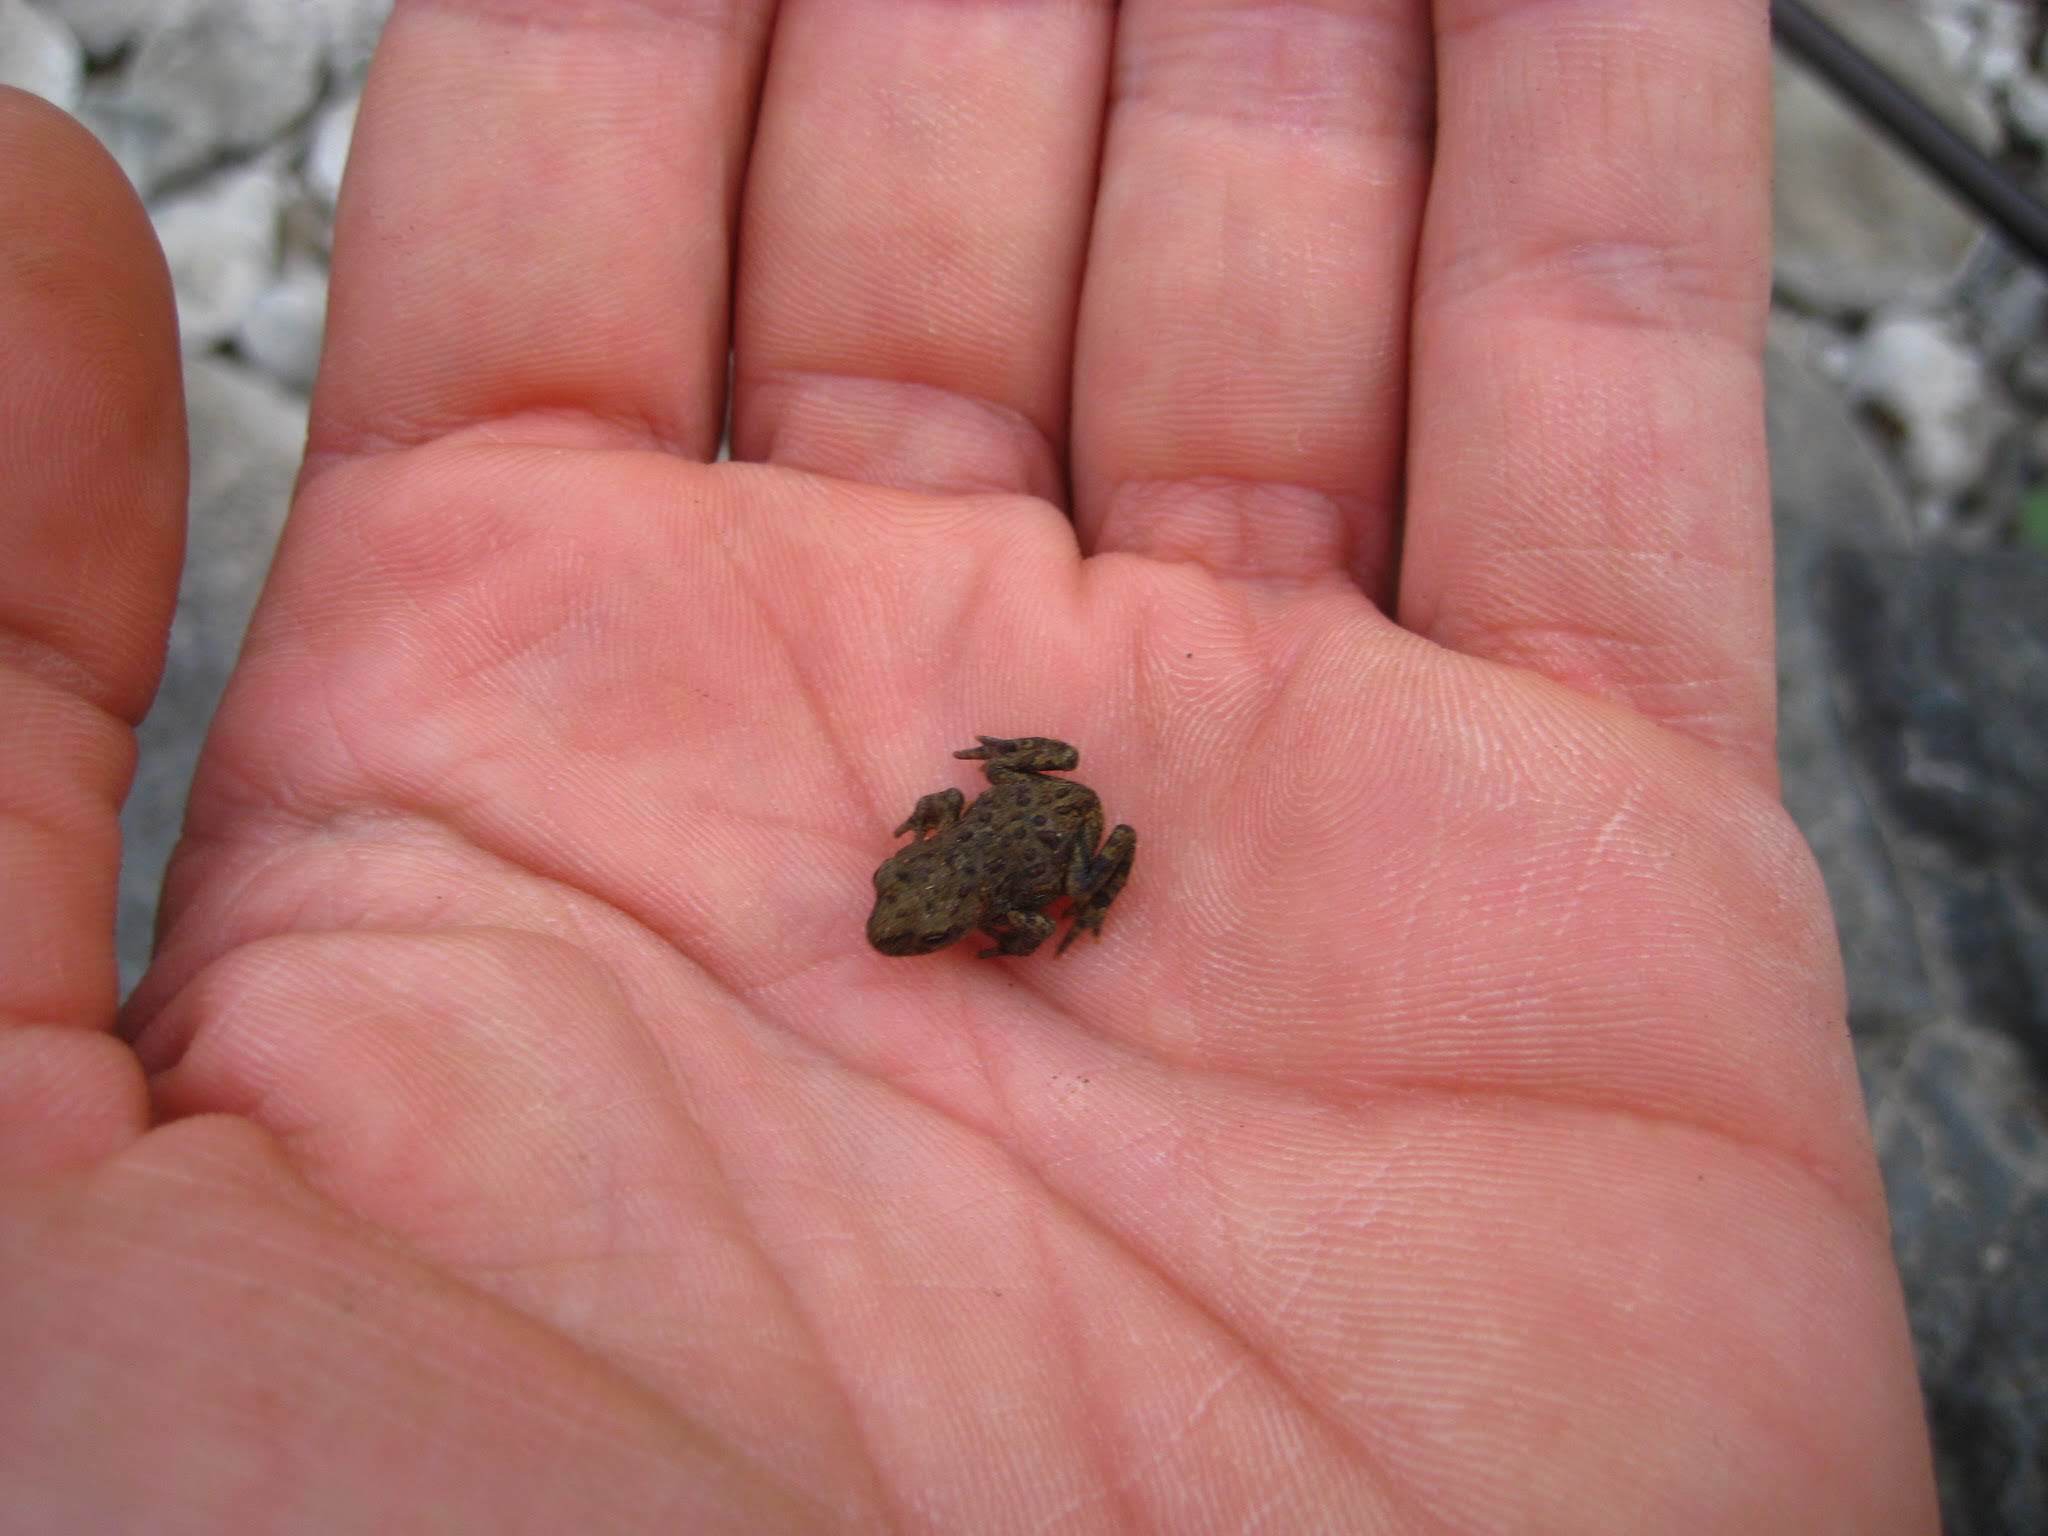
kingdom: Animalia
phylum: Chordata
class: Amphibia
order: Anura
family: Bufonidae
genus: Anaxyrus
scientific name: Anaxyrus boreas
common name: Western toad
